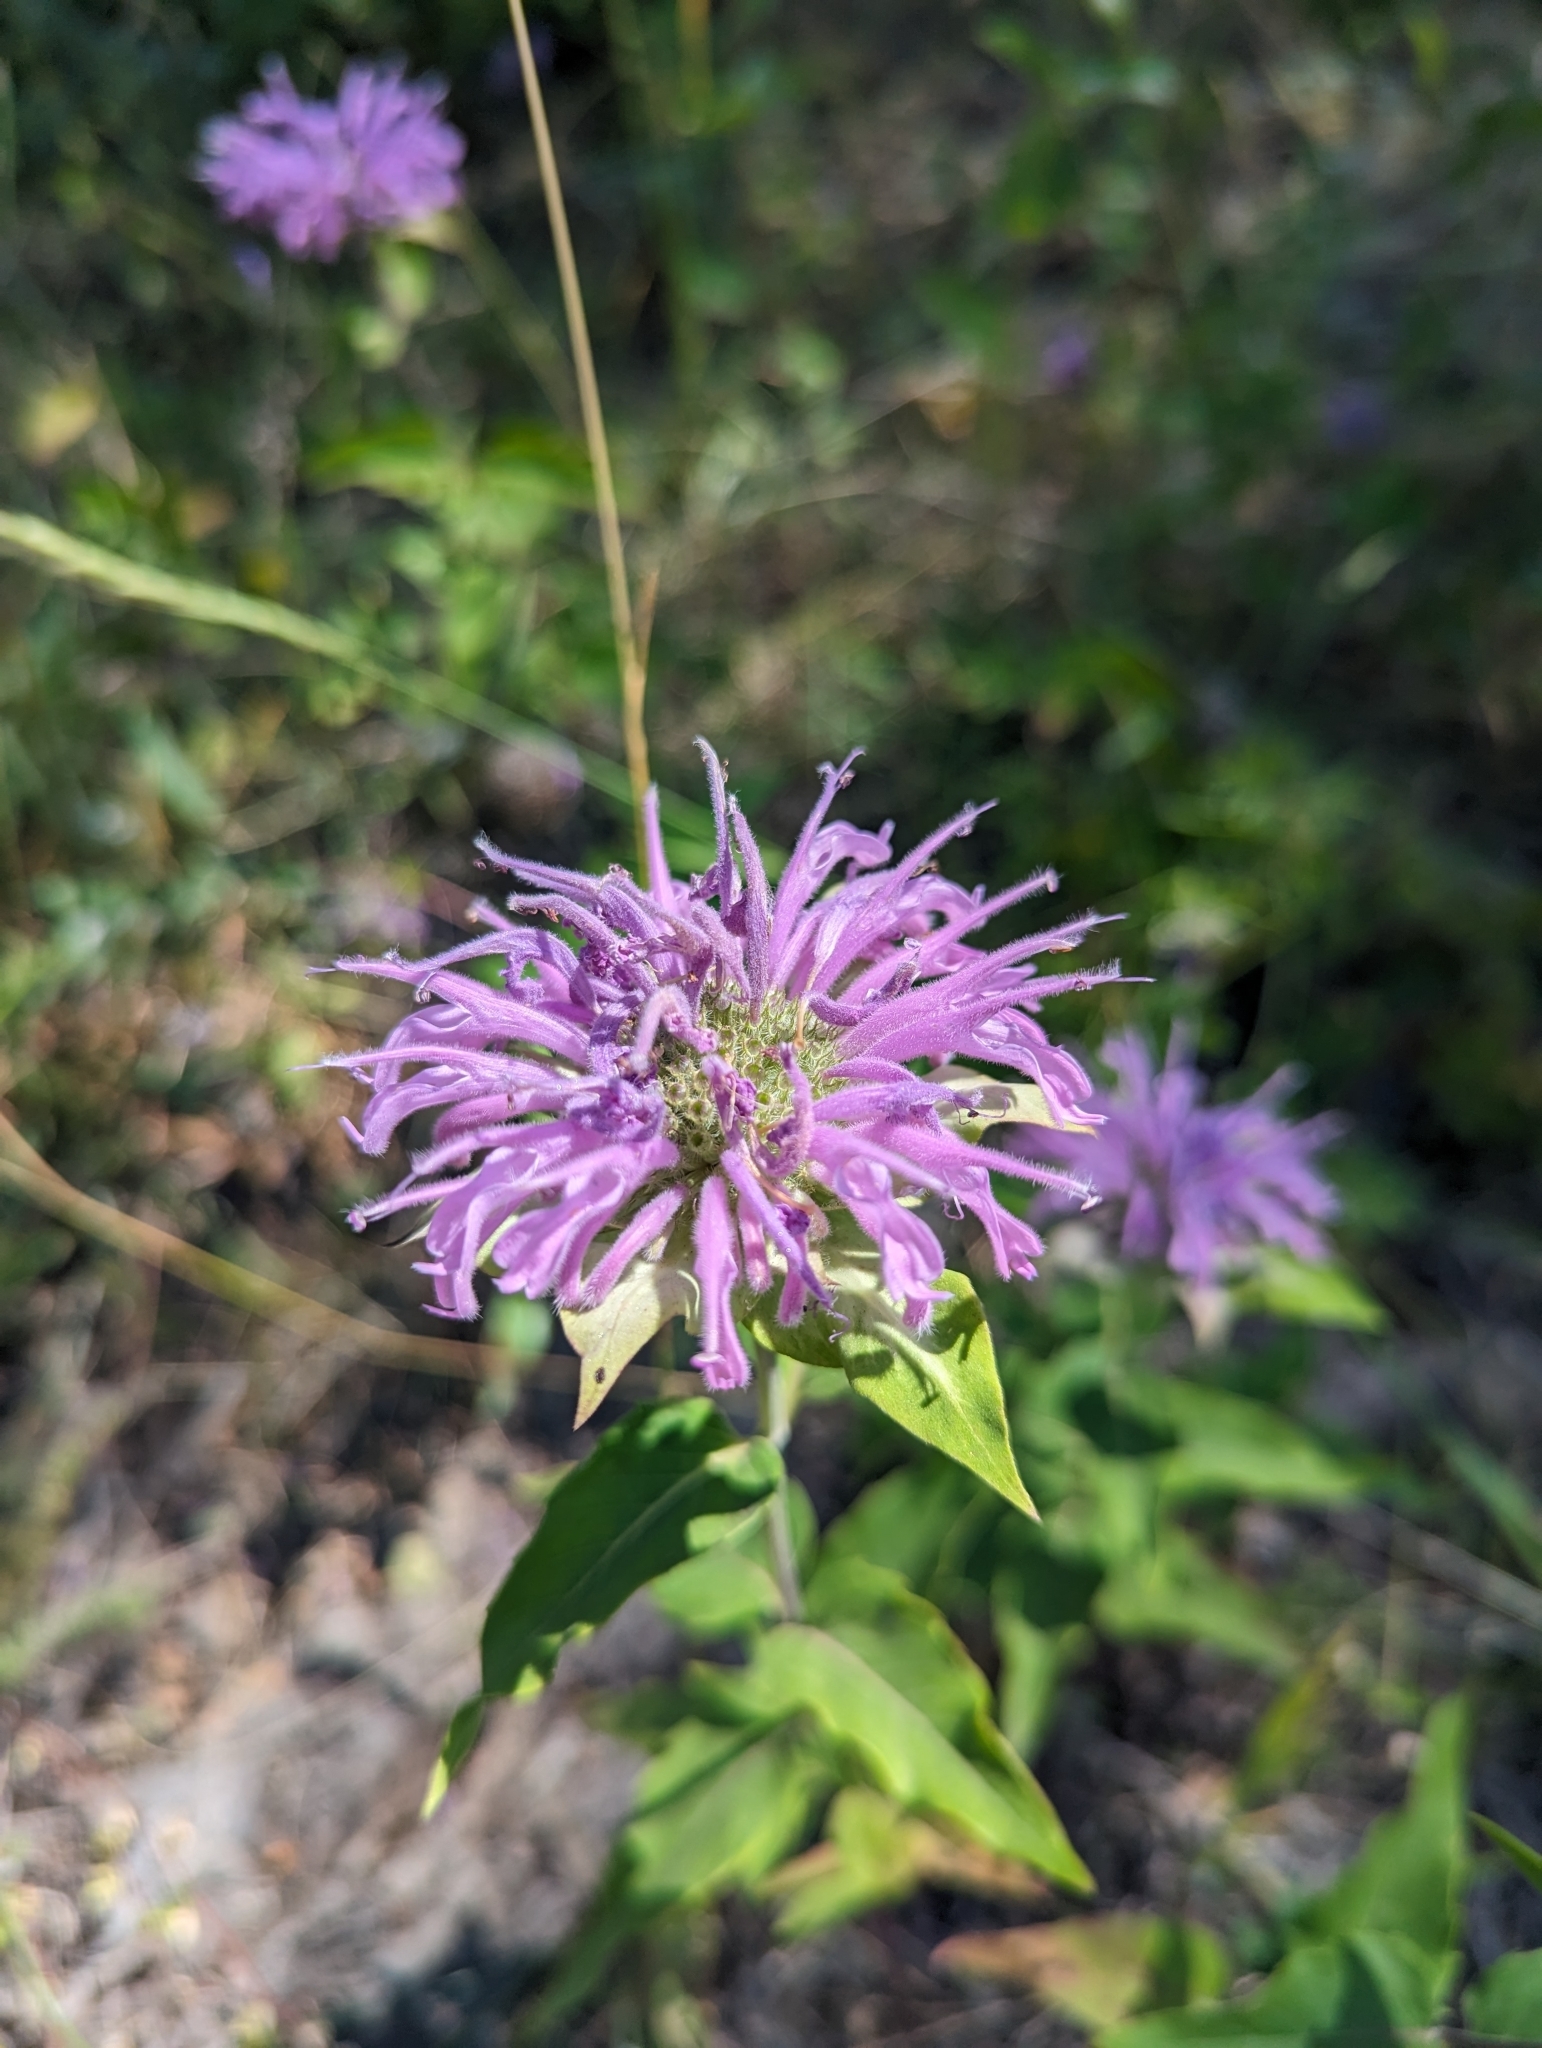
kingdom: Plantae
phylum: Tracheophyta
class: Magnoliopsida
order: Lamiales
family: Lamiaceae
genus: Monarda
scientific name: Monarda fistulosa
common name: Purple beebalm
